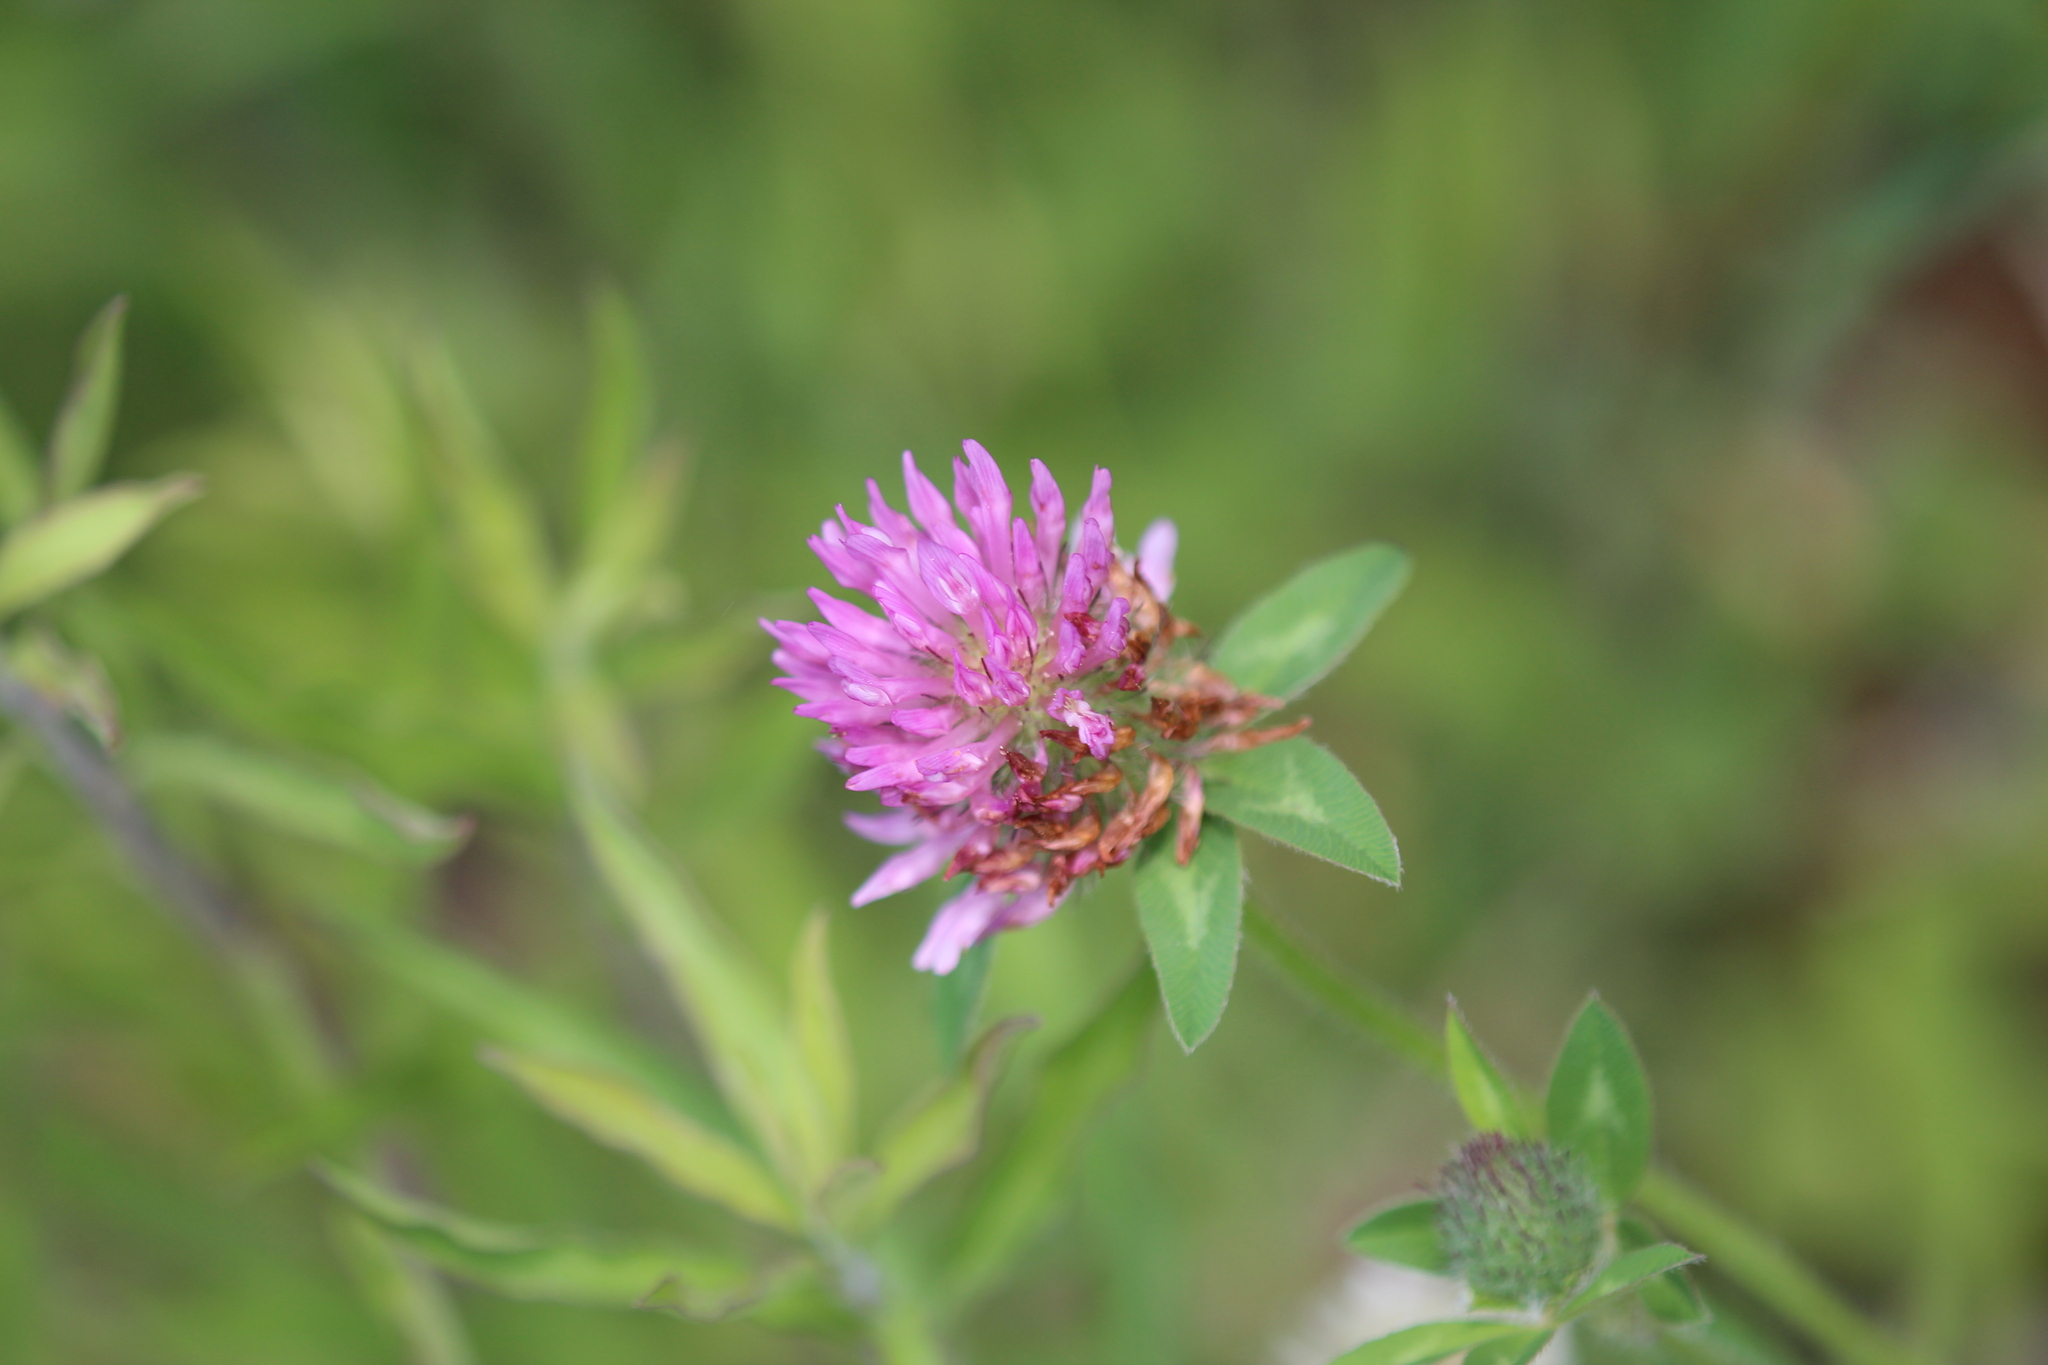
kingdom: Plantae
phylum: Tracheophyta
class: Magnoliopsida
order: Fabales
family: Fabaceae
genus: Trifolium
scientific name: Trifolium pratense
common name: Red clover
